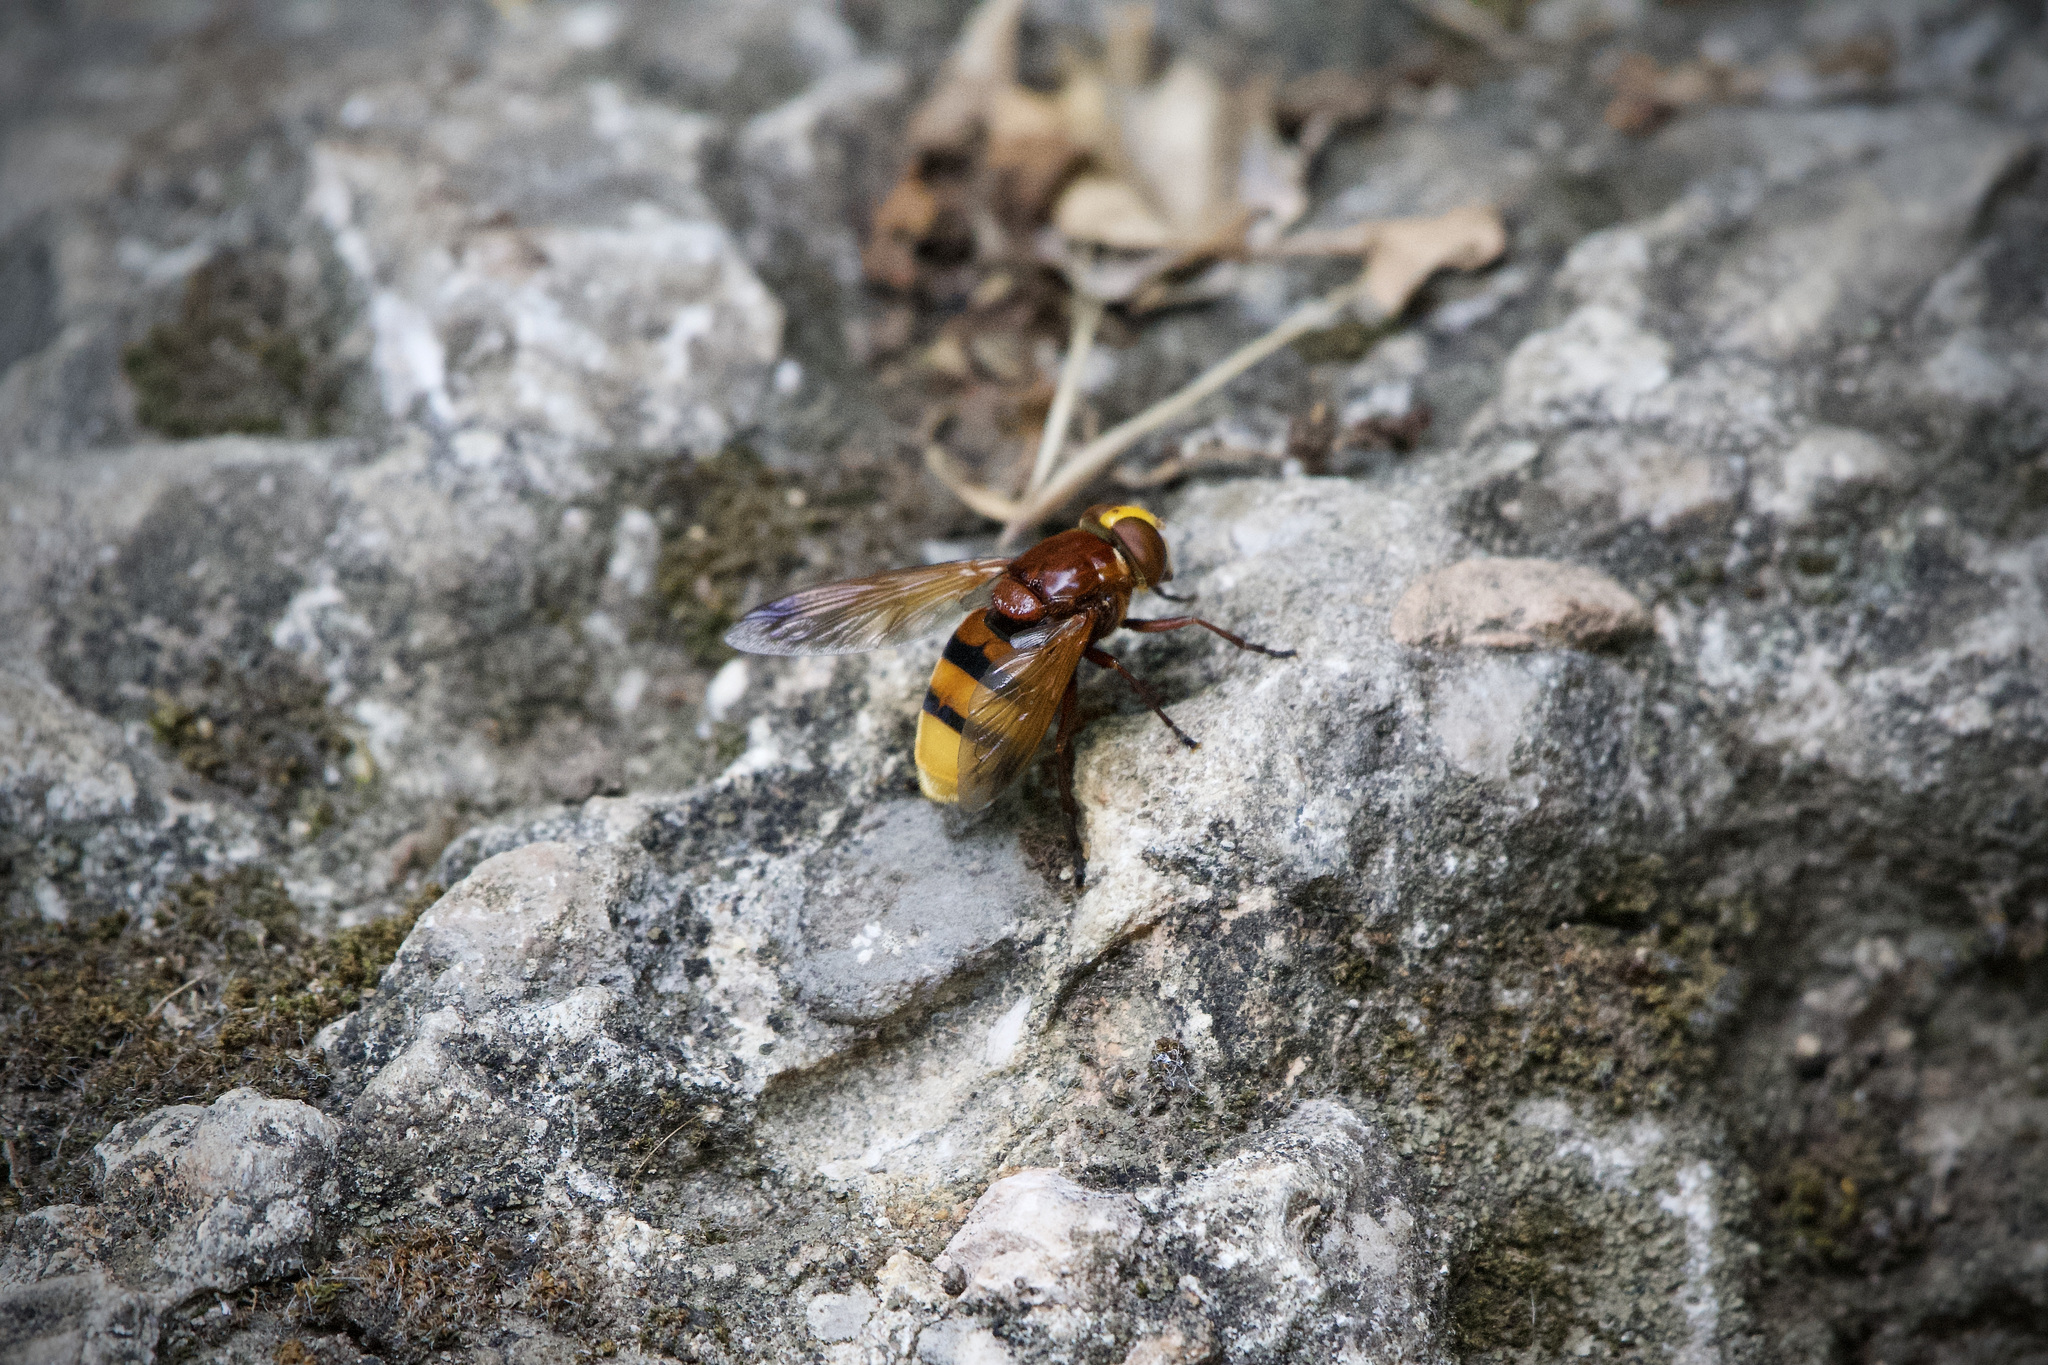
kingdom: Animalia
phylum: Arthropoda
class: Insecta
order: Diptera
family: Syrphidae
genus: Volucella
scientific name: Volucella zonaria
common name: Hornet hoverfly
